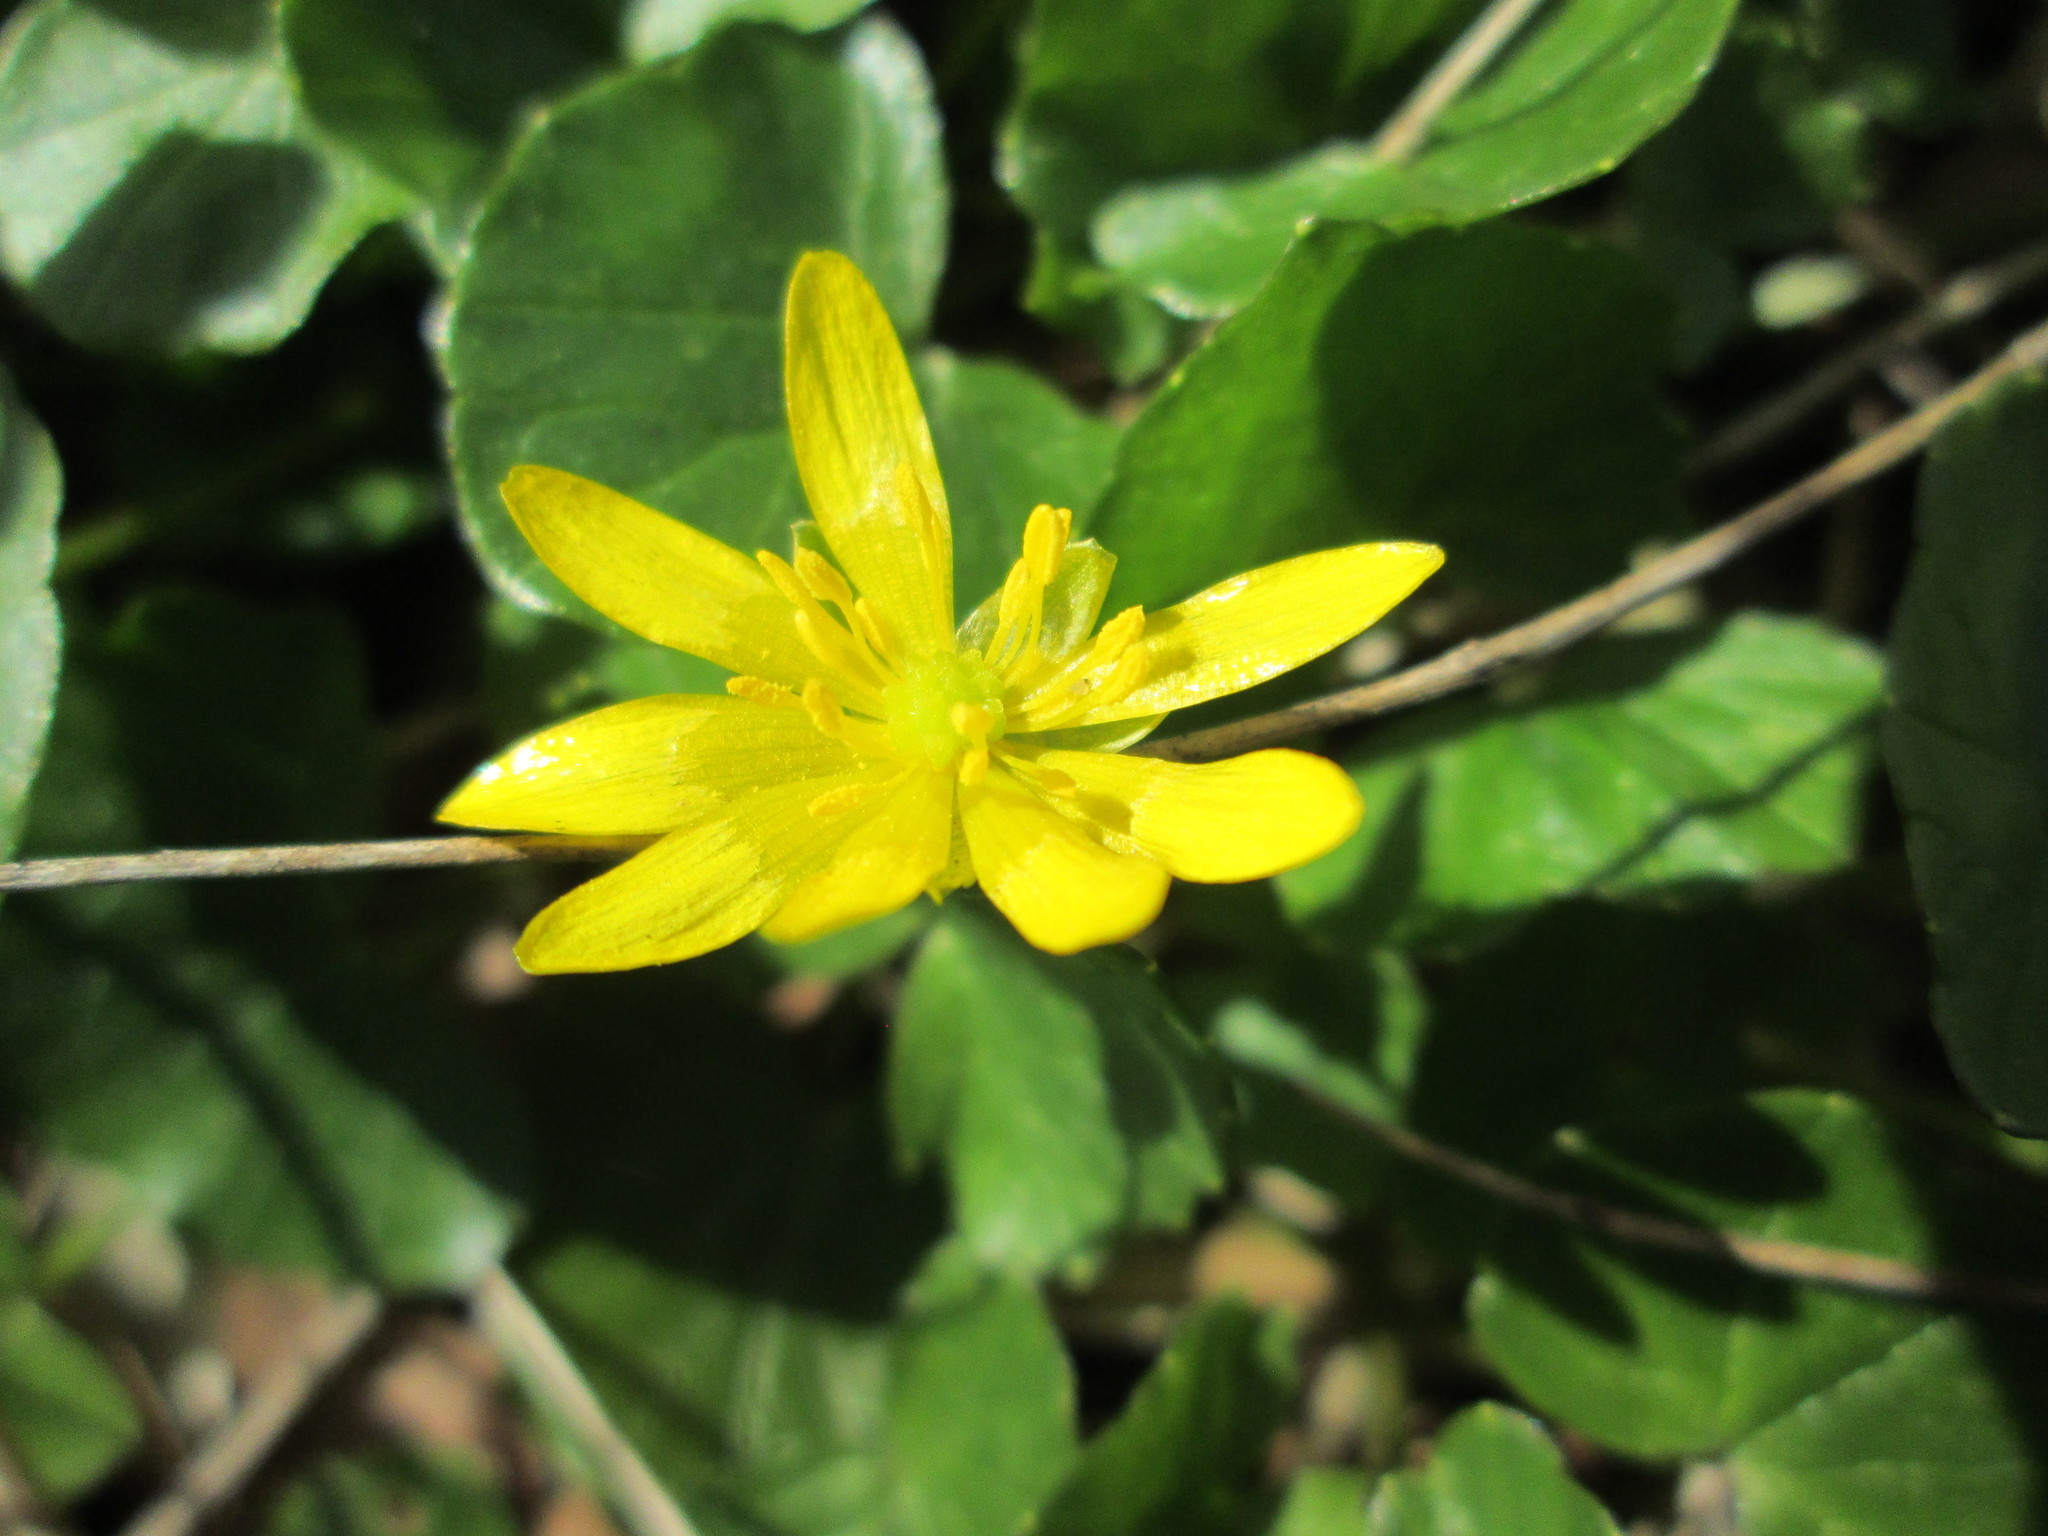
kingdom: Plantae
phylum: Tracheophyta
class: Magnoliopsida
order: Ranunculales
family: Ranunculaceae
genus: Ficaria
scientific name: Ficaria verna
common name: Lesser celandine
